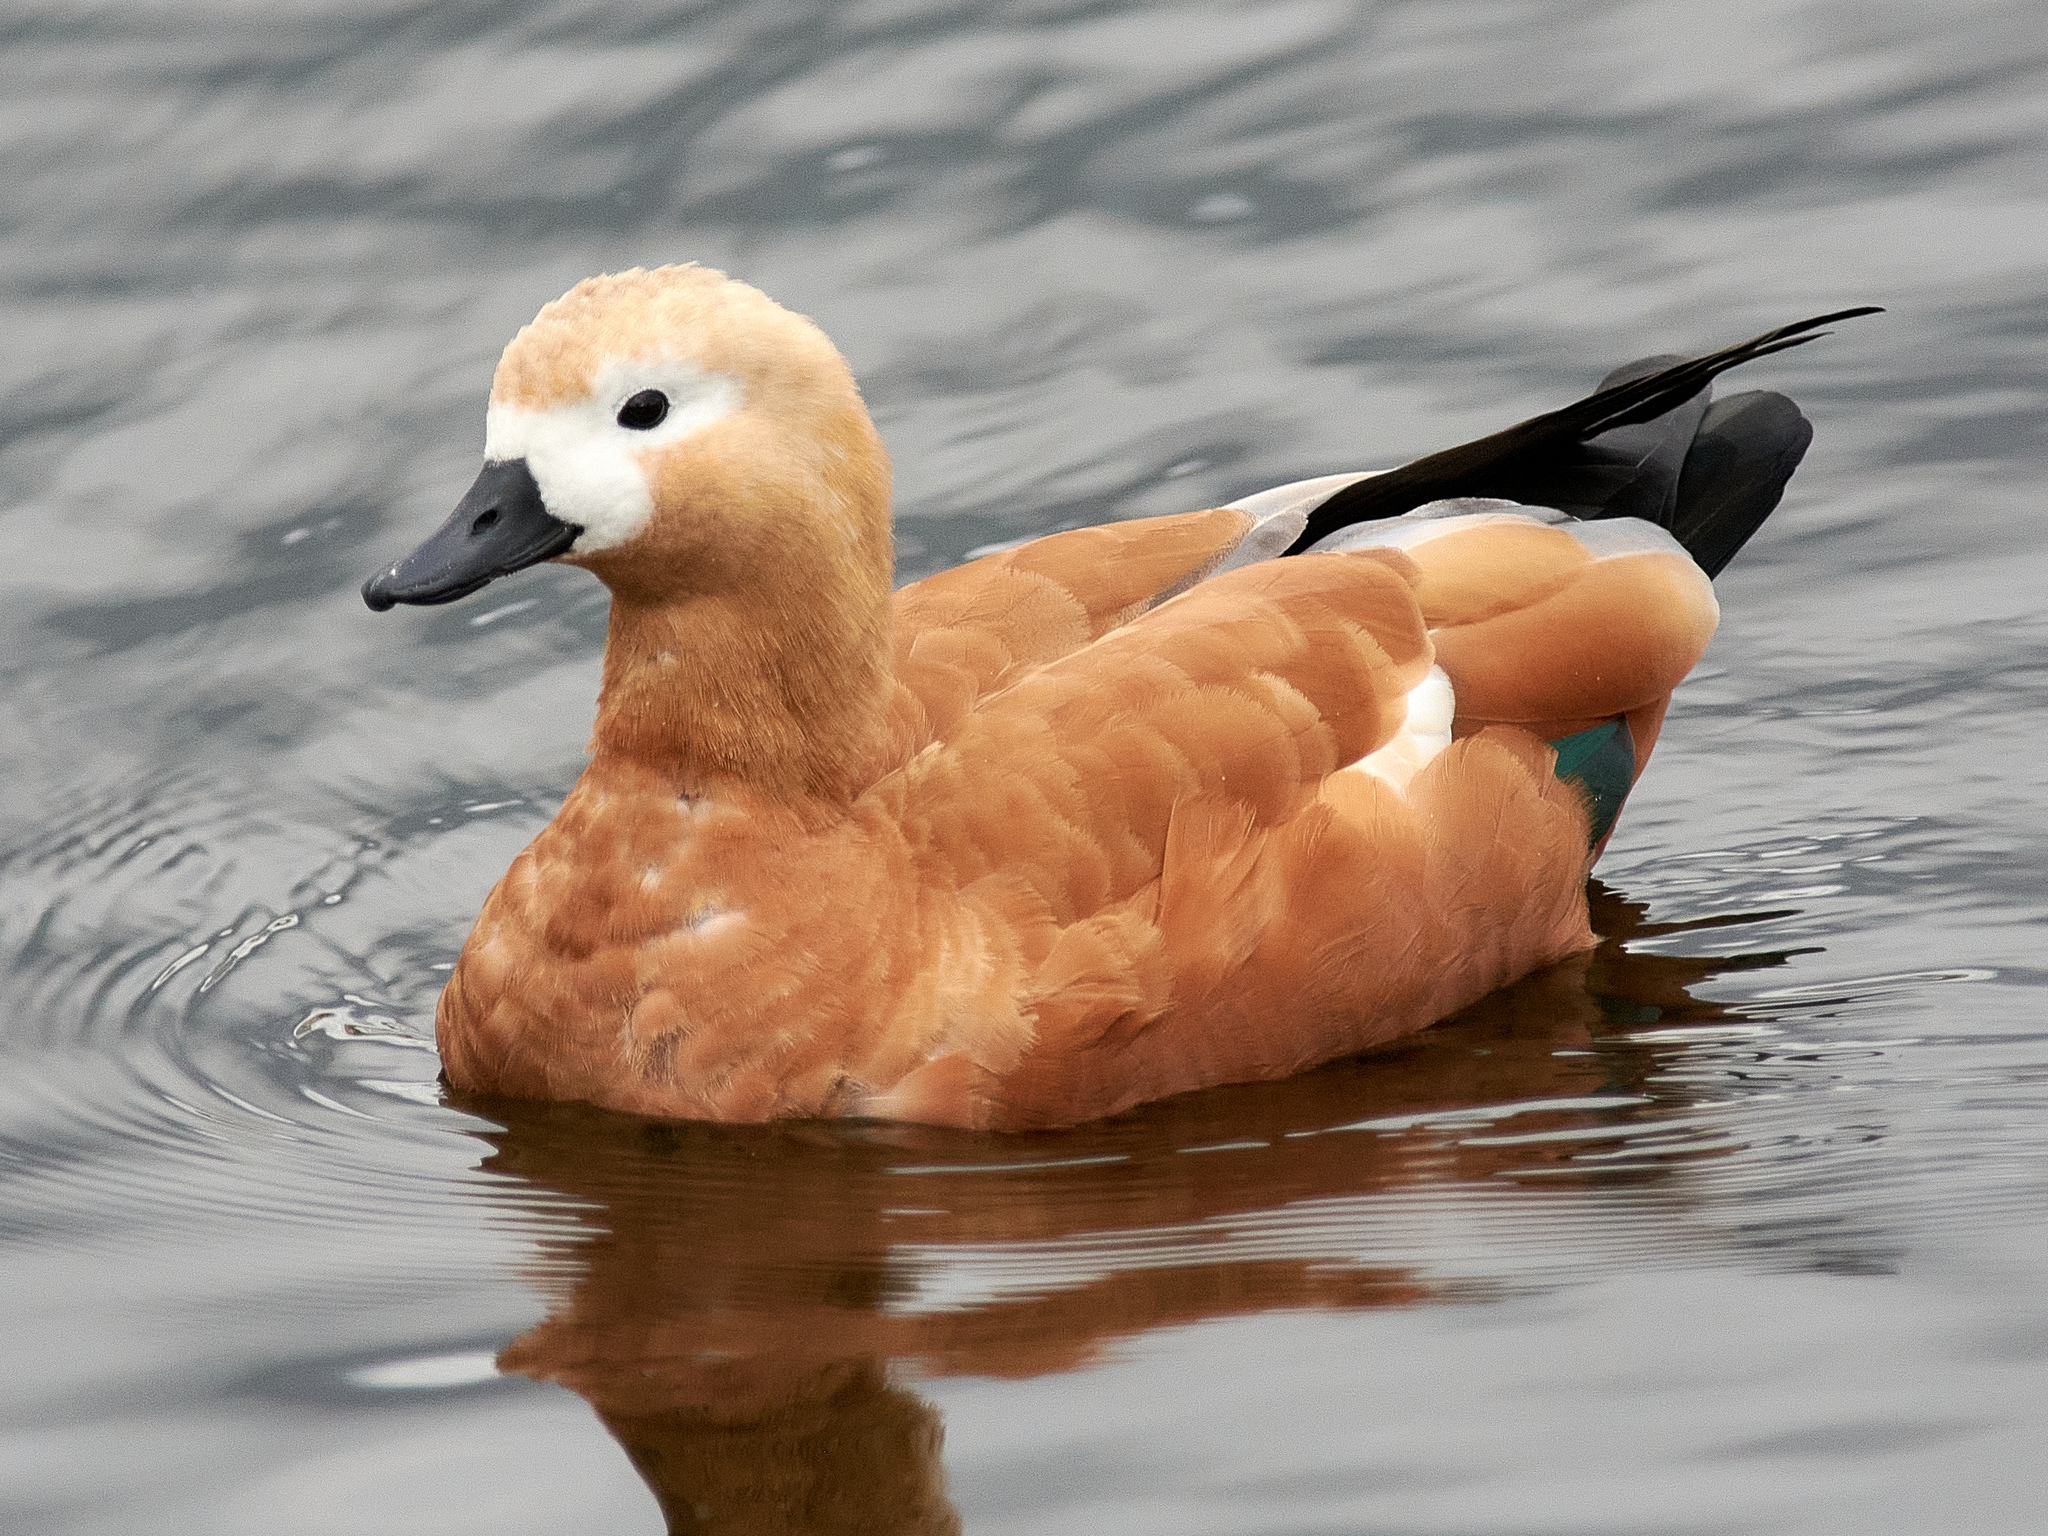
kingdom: Animalia
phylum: Chordata
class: Aves
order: Anseriformes
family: Anatidae
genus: Tadorna
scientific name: Tadorna ferruginea
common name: Ruddy shelduck
